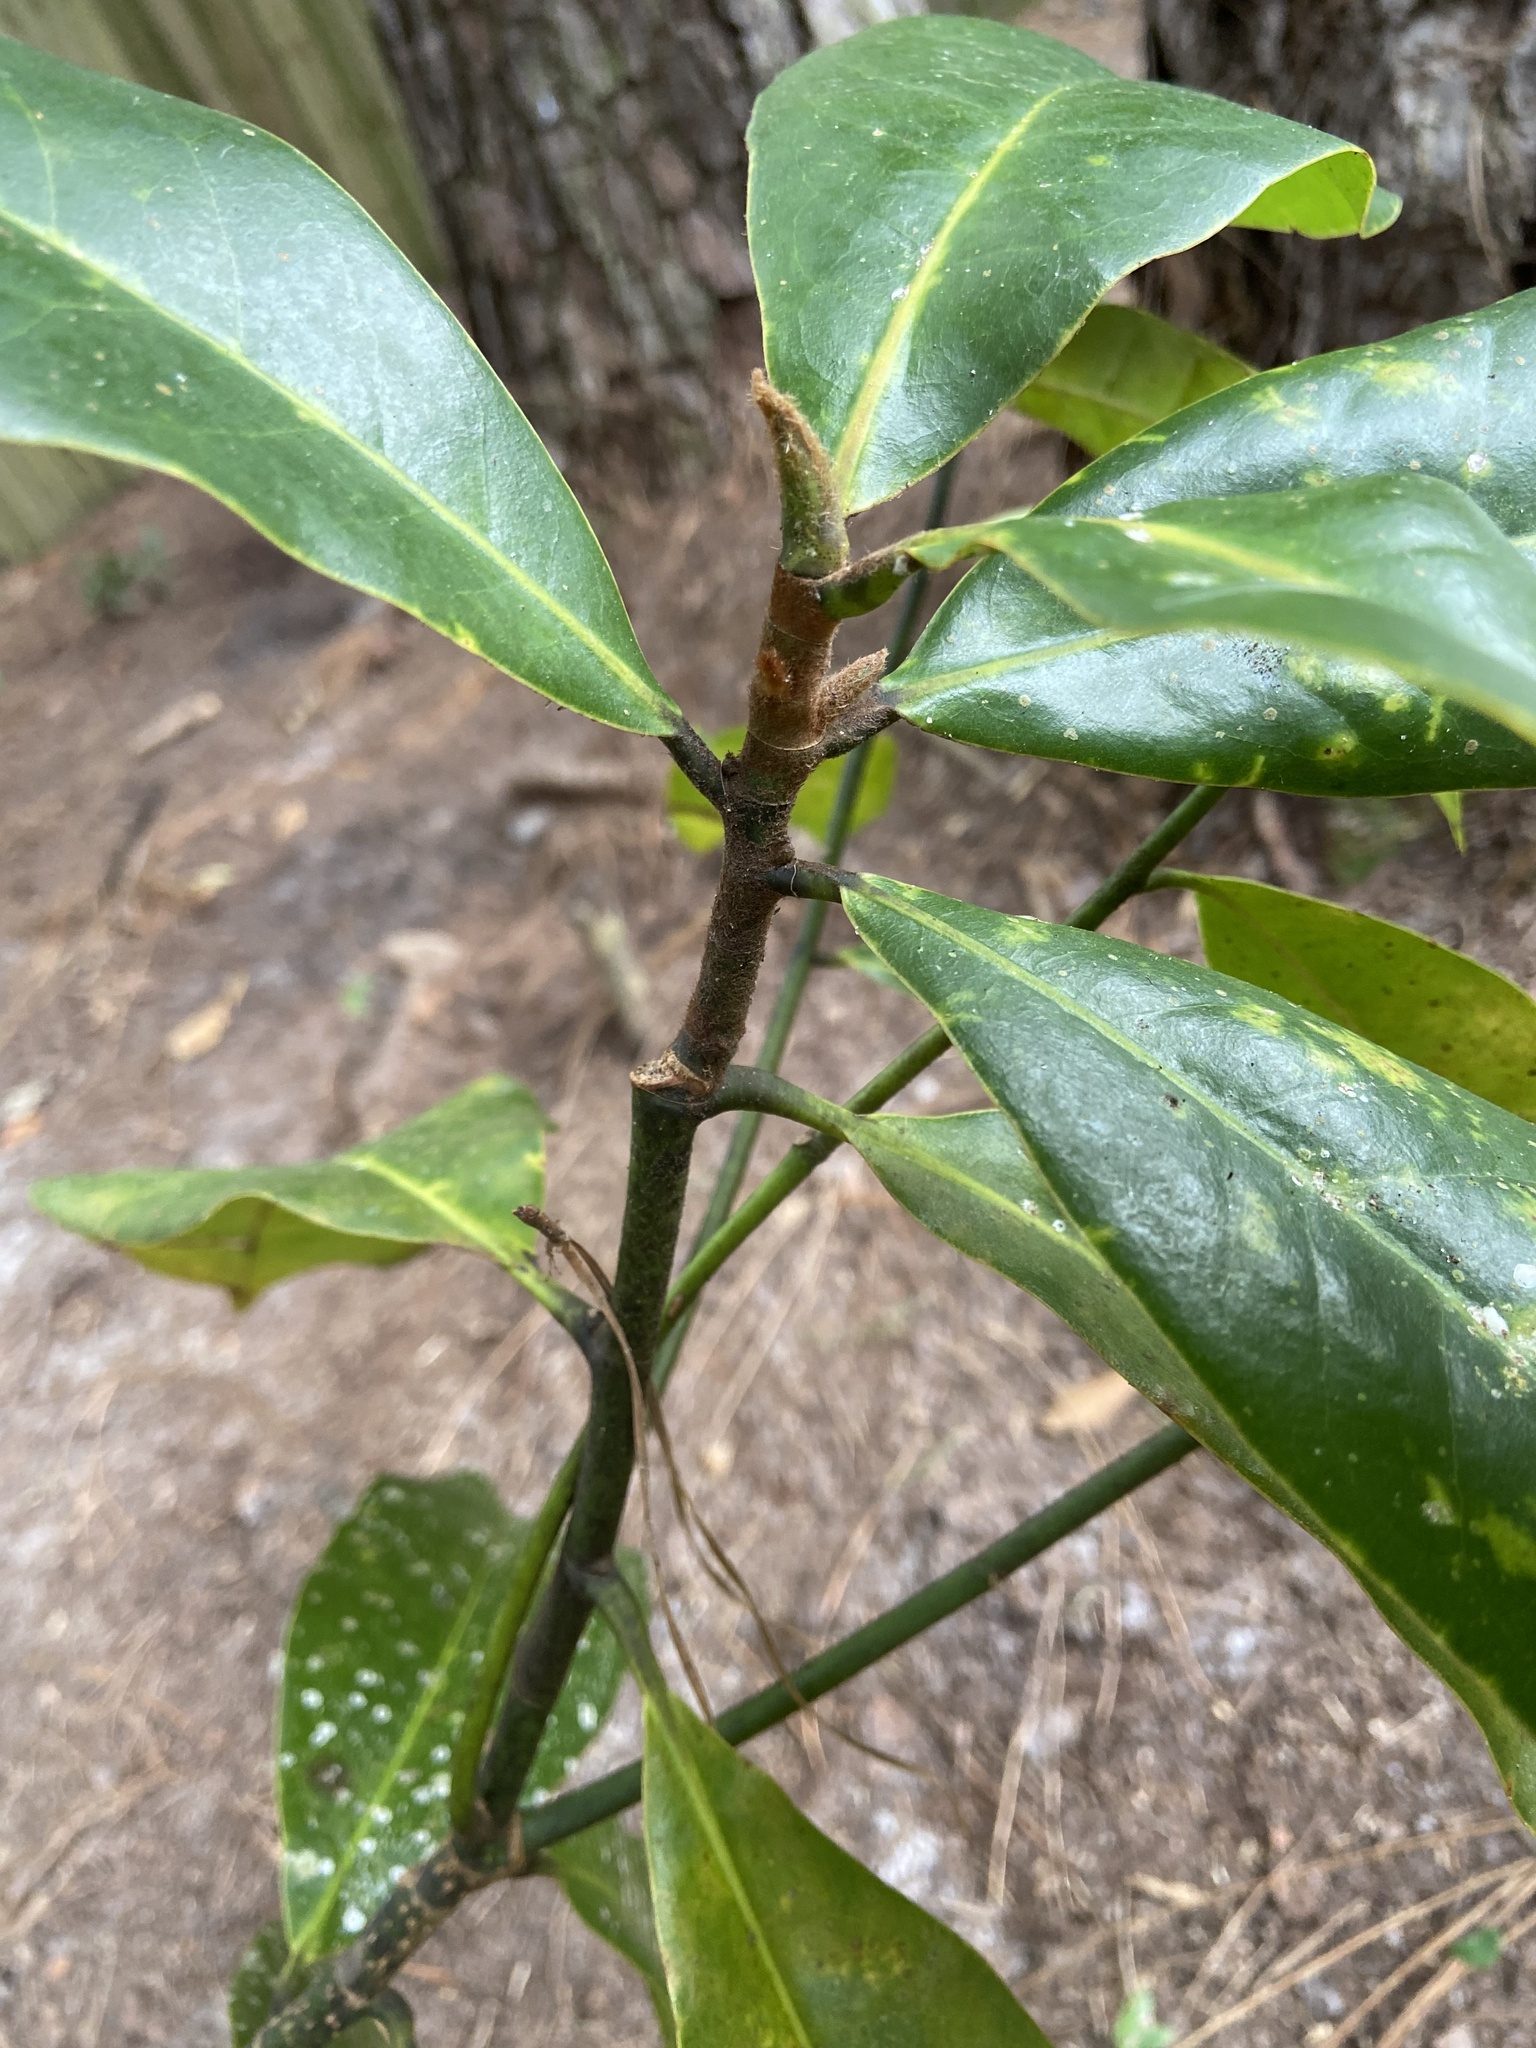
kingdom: Plantae
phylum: Tracheophyta
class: Magnoliopsida
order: Magnoliales
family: Magnoliaceae
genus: Magnolia
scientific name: Magnolia grandiflora
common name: Southern magnolia
